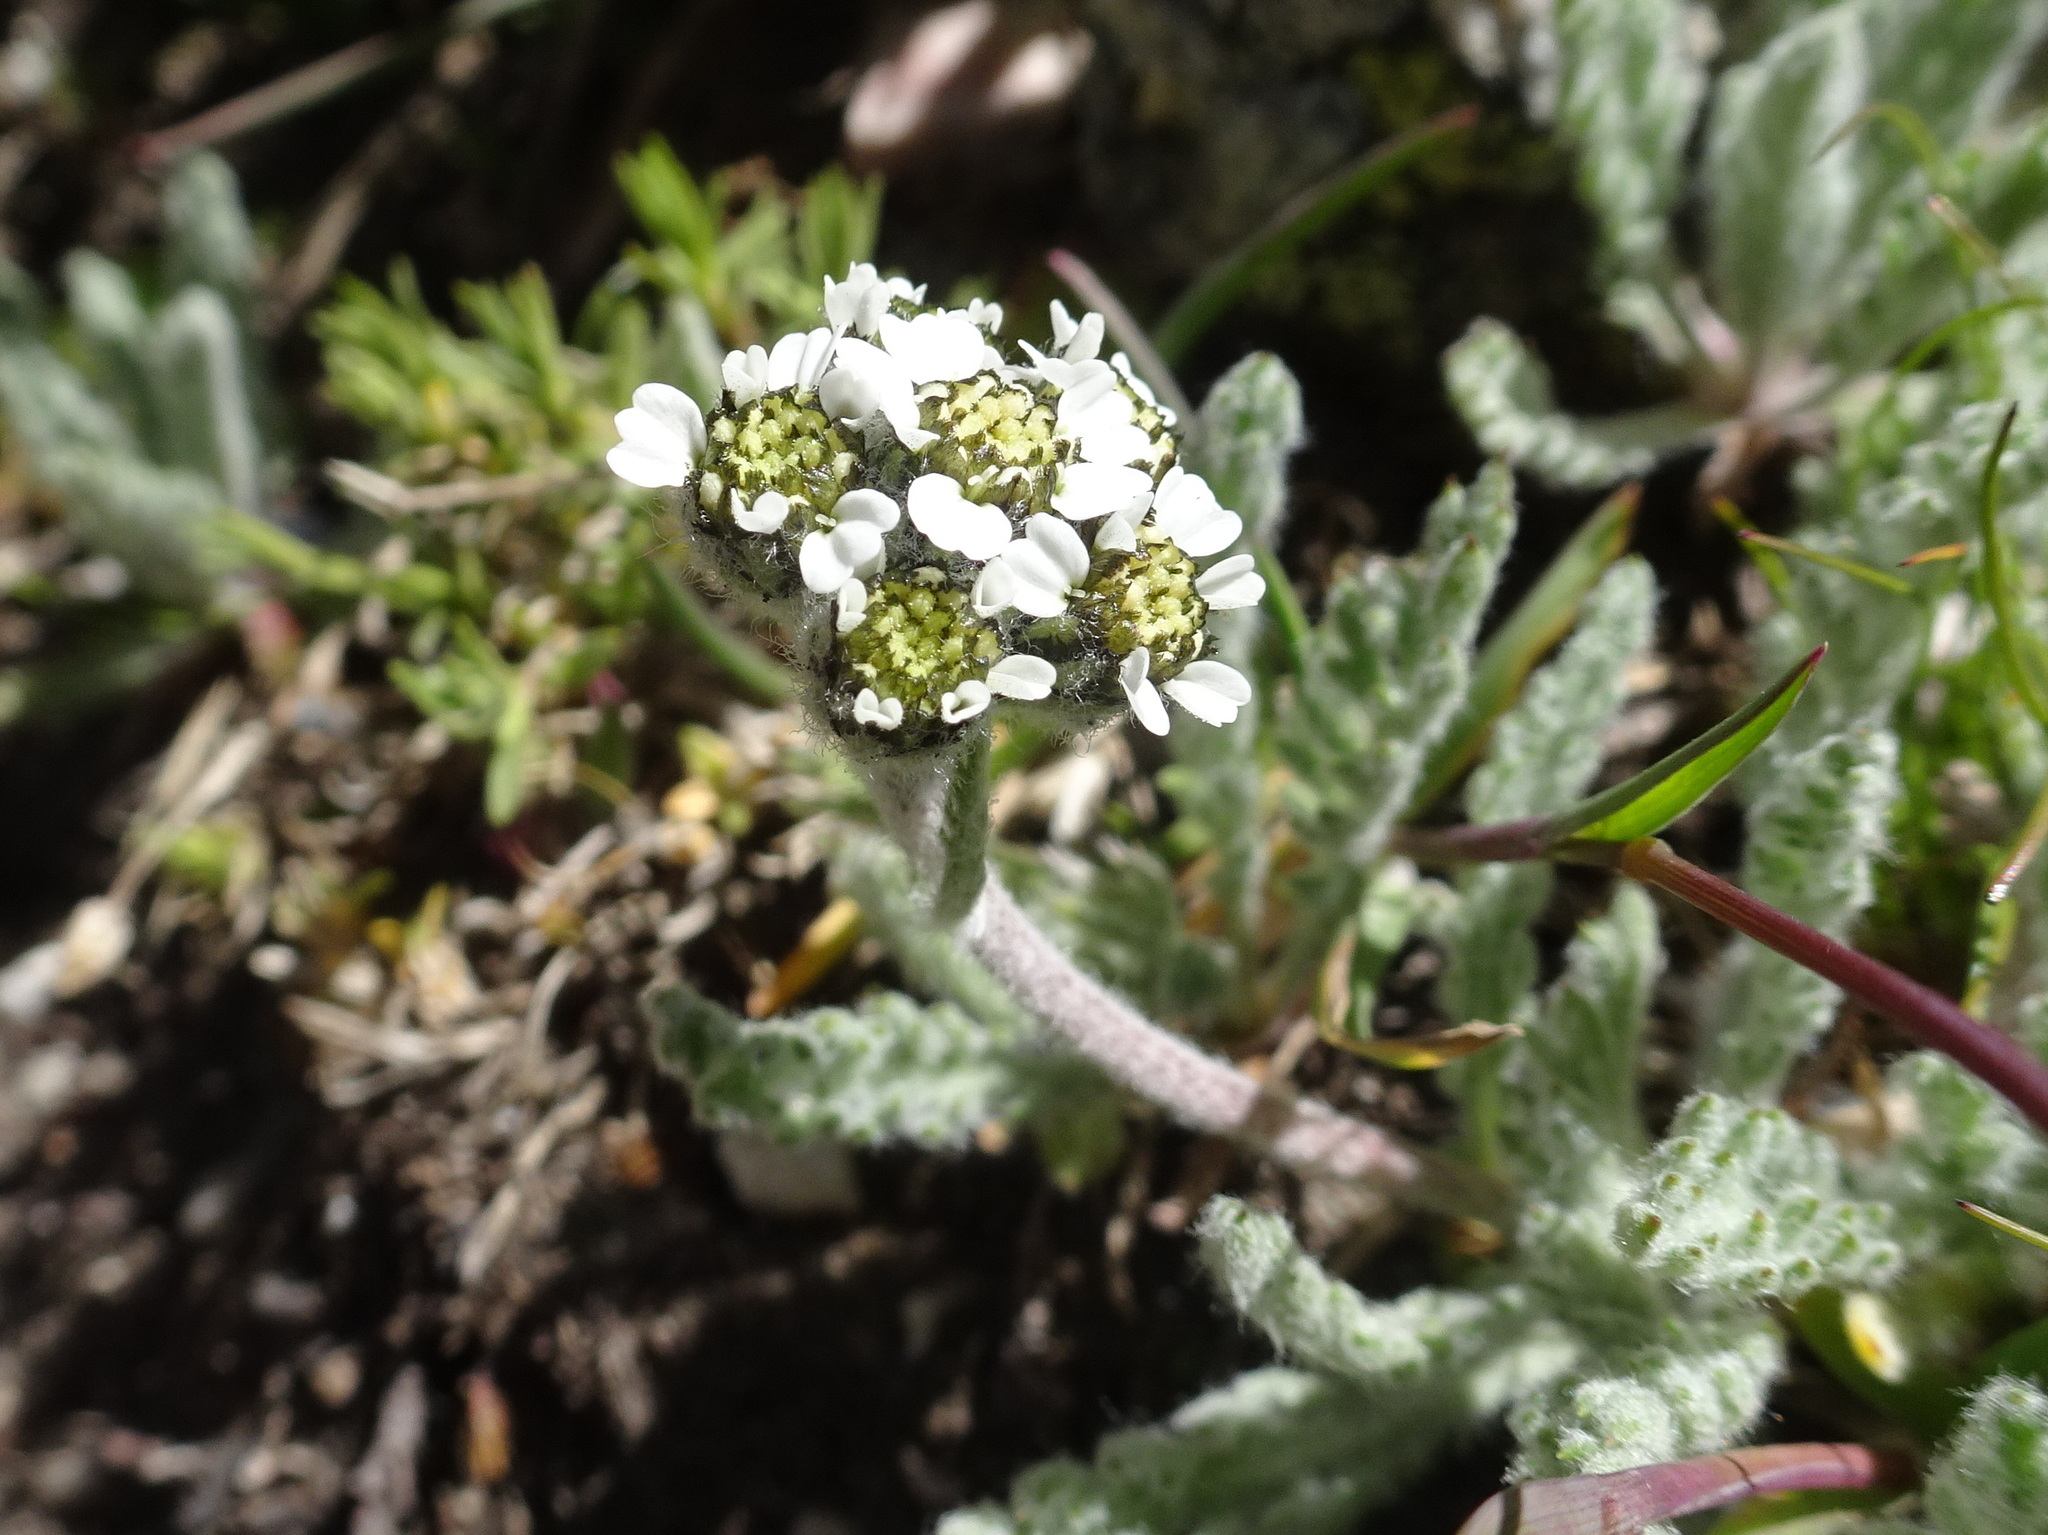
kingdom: Plantae
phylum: Tracheophyta
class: Magnoliopsida
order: Asterales
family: Asteraceae
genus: Achillea
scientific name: Achillea nana
